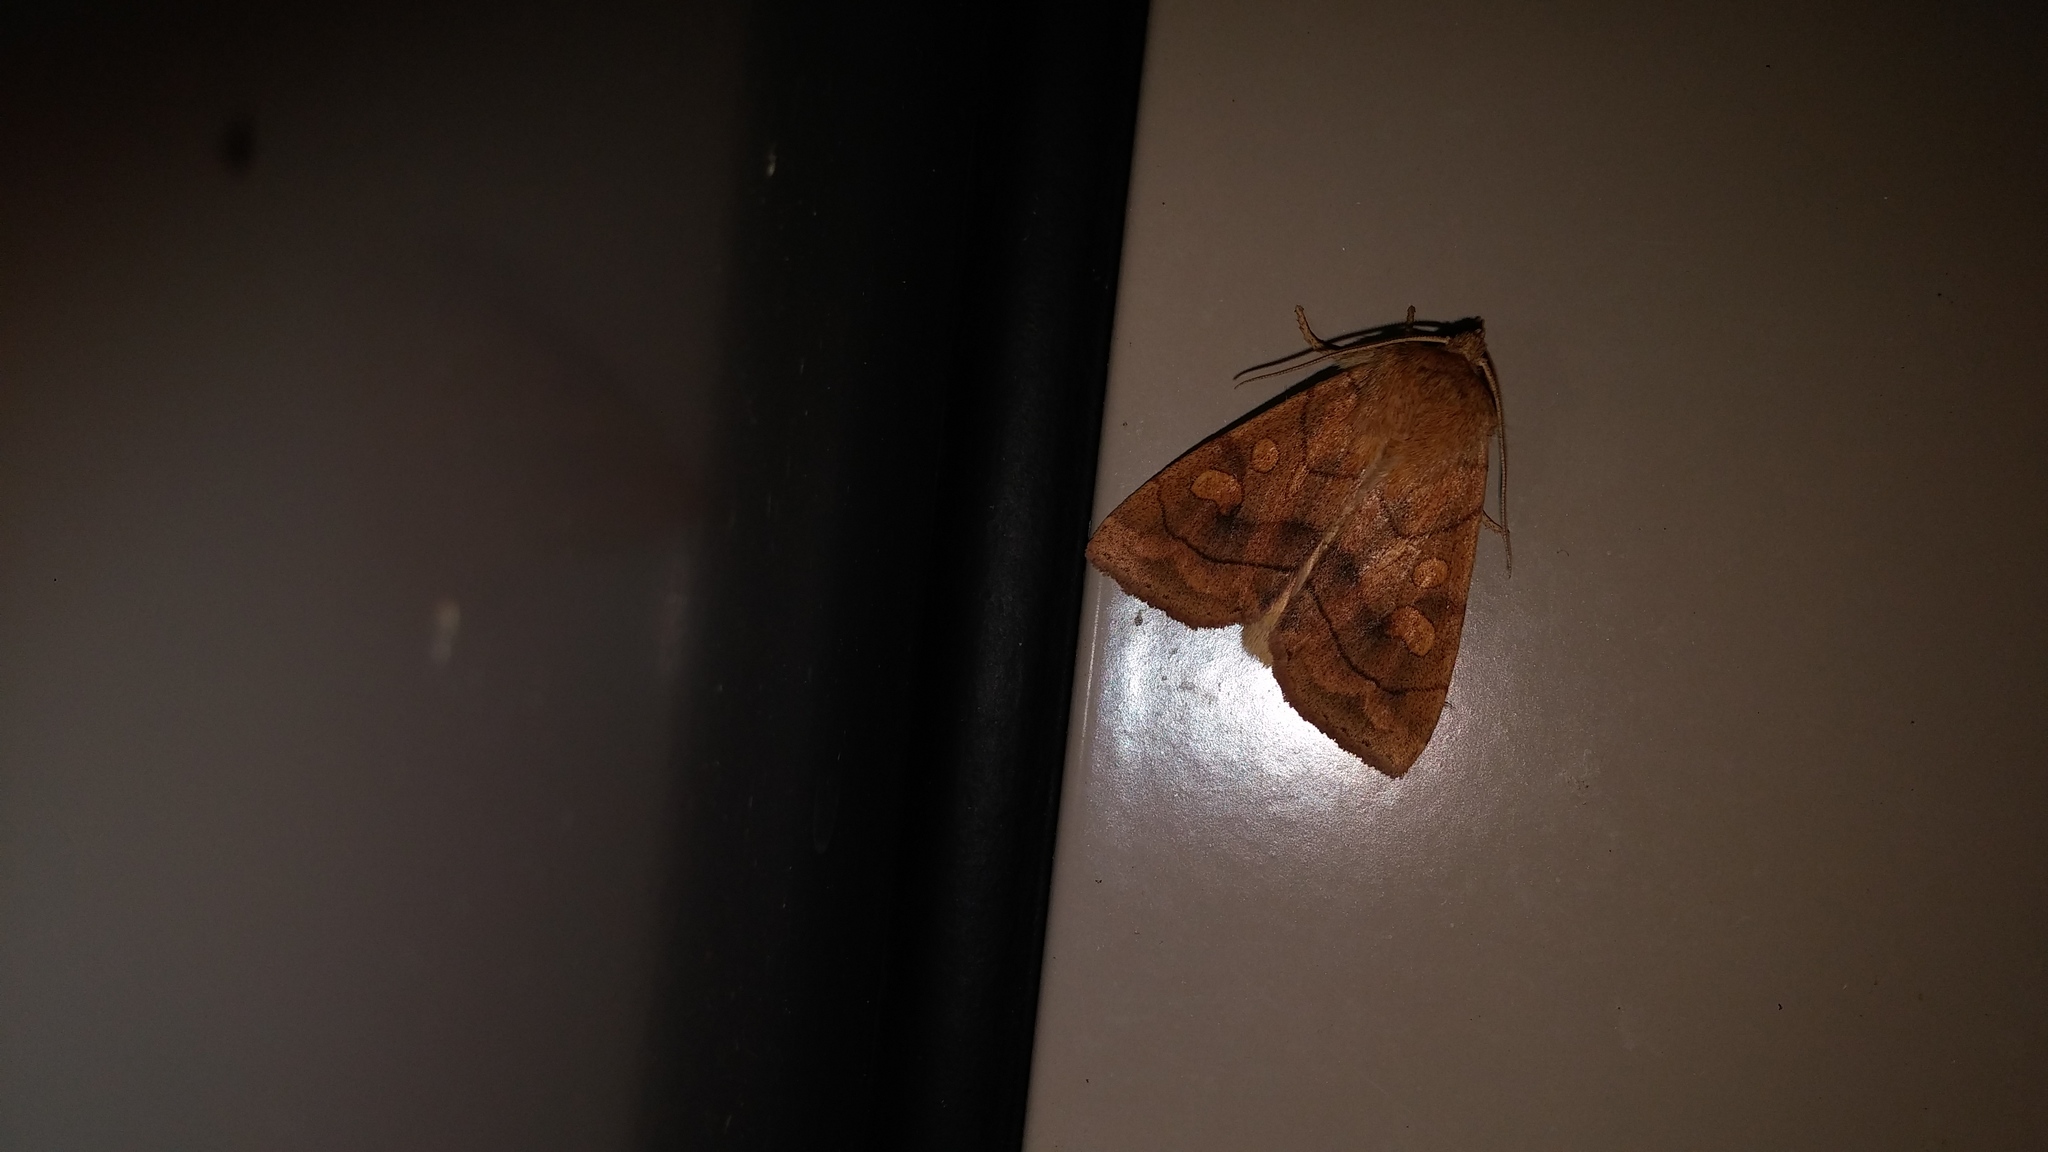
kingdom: Animalia
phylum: Arthropoda
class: Insecta
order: Lepidoptera
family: Noctuidae
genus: Enargia
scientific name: Enargia decolor
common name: Aspen twoleaf tier moth
